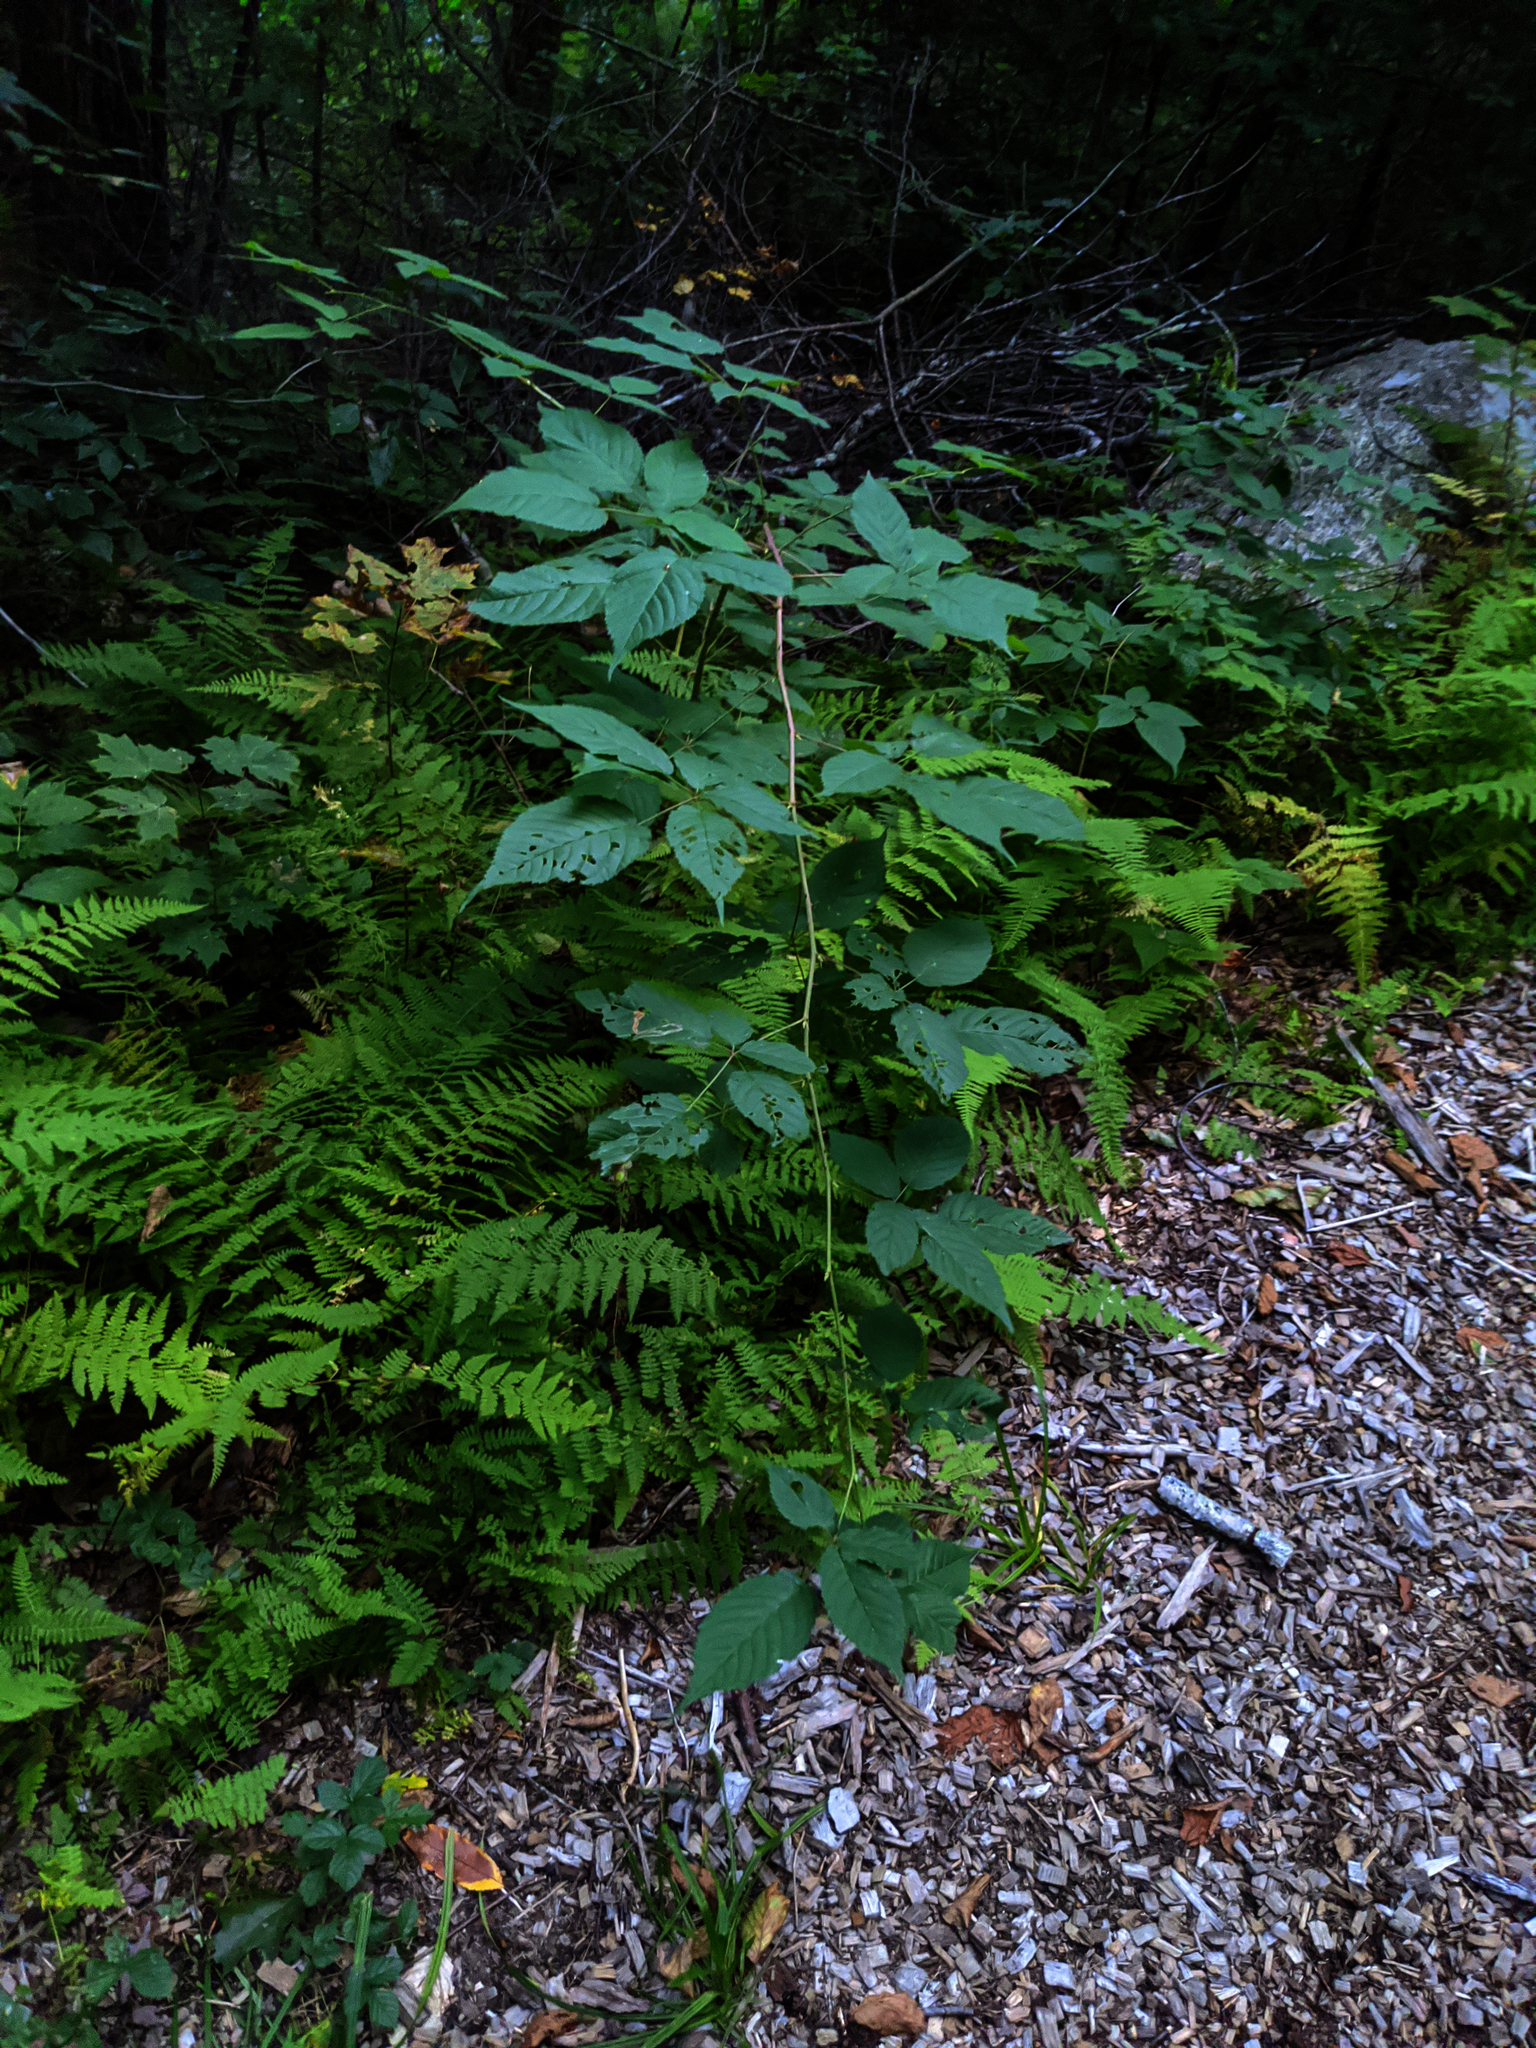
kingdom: Plantae
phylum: Tracheophyta
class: Magnoliopsida
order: Rosales
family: Rosaceae
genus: Rubus
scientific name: Rubus allegheniensis
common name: Allegheny blackberry
